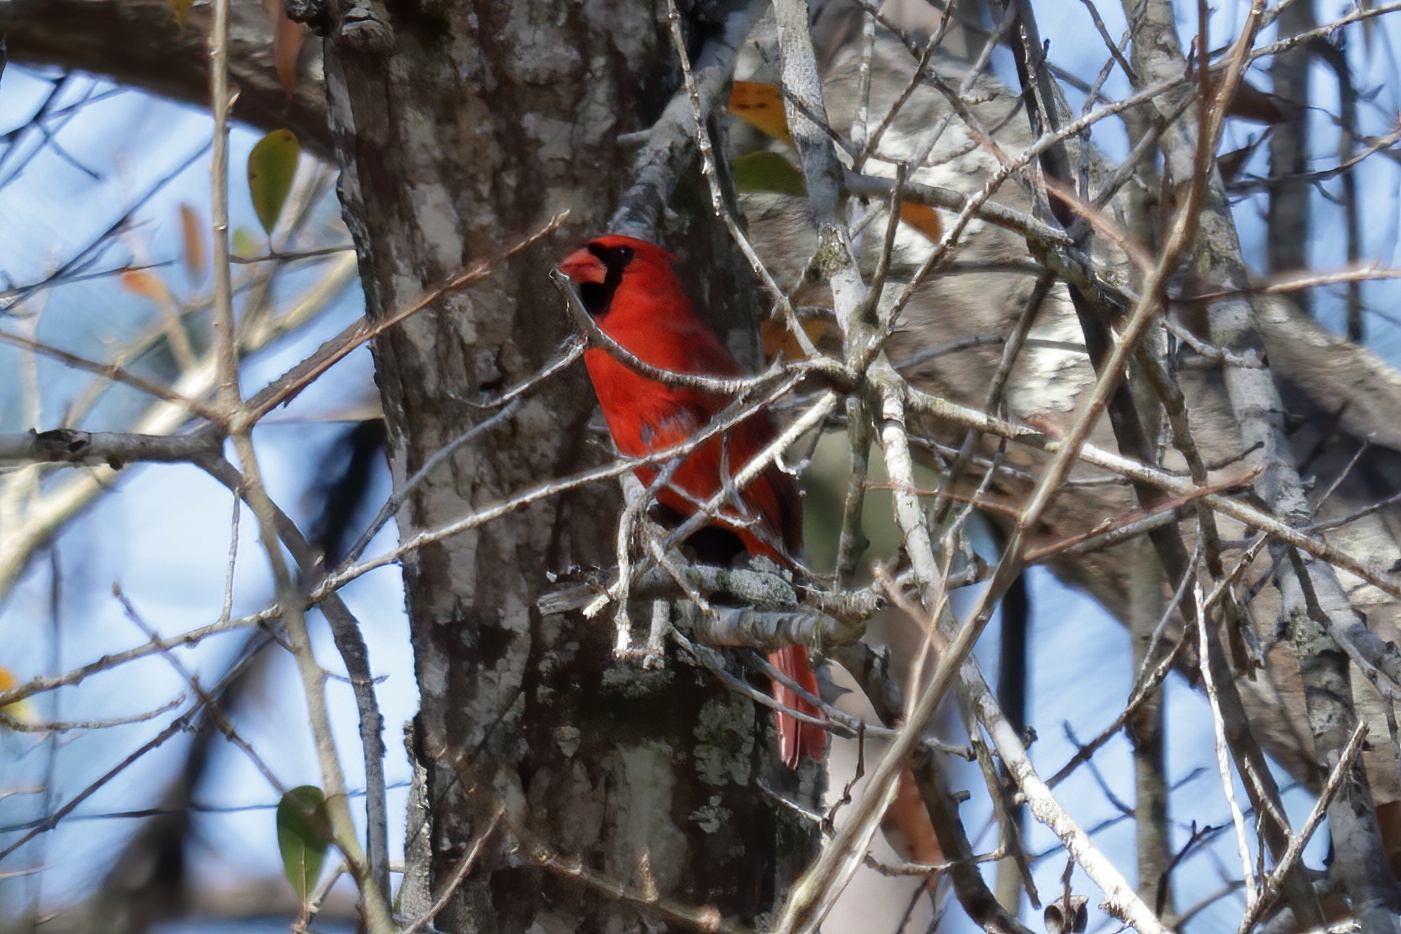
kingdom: Animalia
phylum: Chordata
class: Aves
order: Passeriformes
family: Cardinalidae
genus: Cardinalis
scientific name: Cardinalis cardinalis
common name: Northern cardinal
